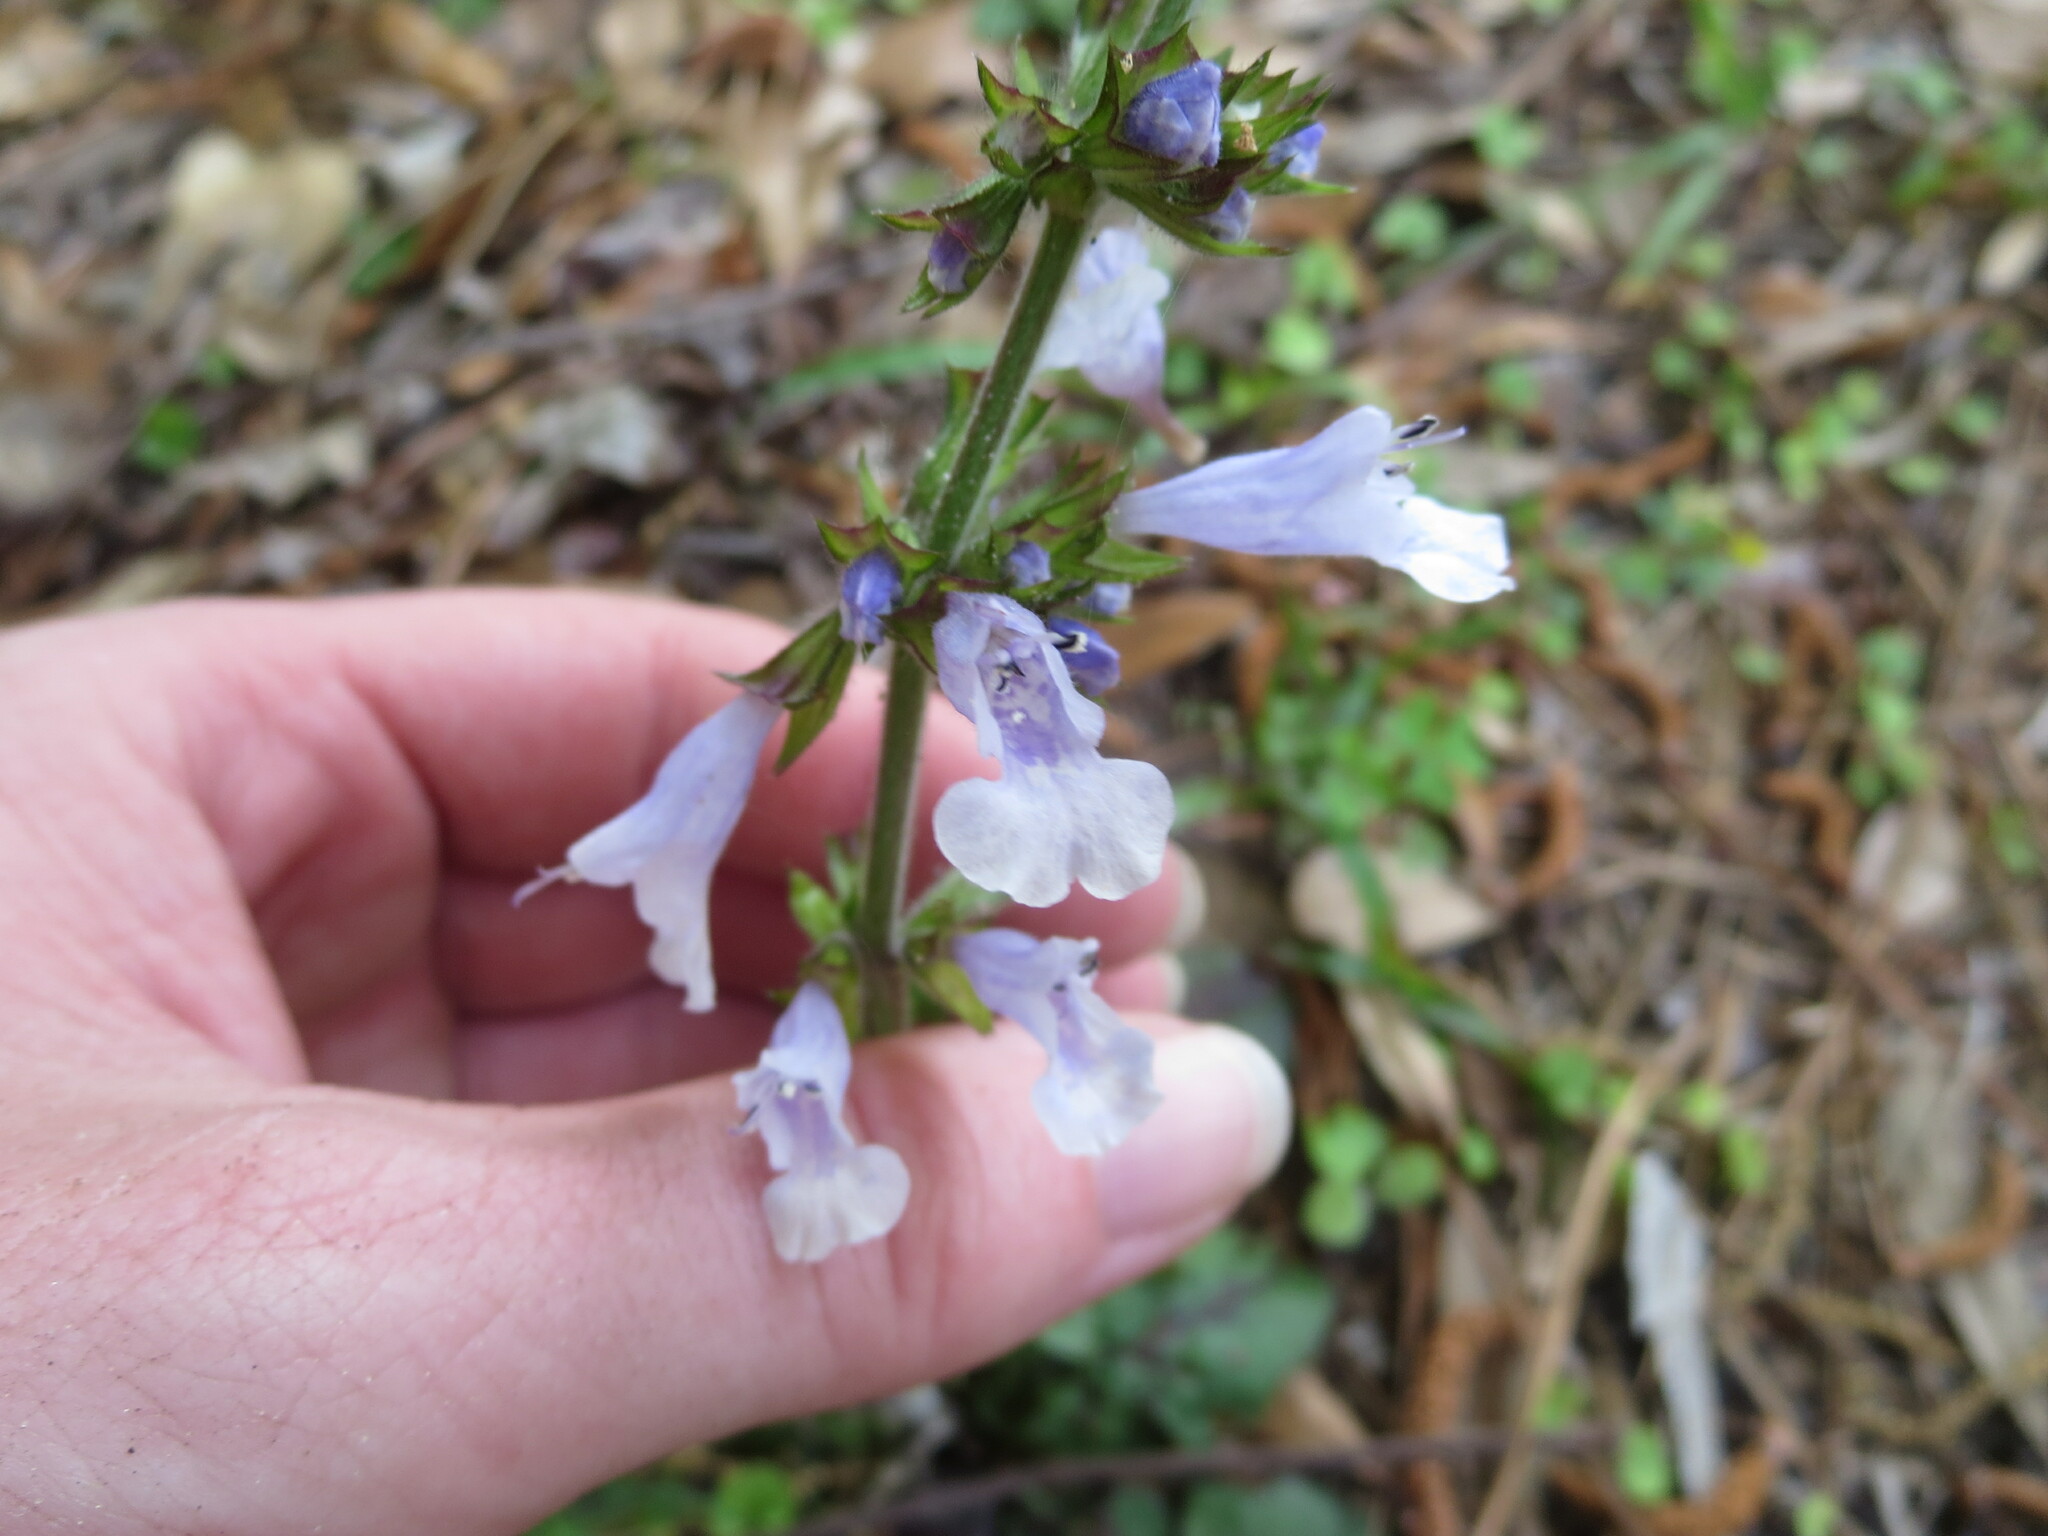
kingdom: Plantae
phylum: Tracheophyta
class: Magnoliopsida
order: Lamiales
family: Lamiaceae
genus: Salvia
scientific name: Salvia lyrata
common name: Cancerweed
